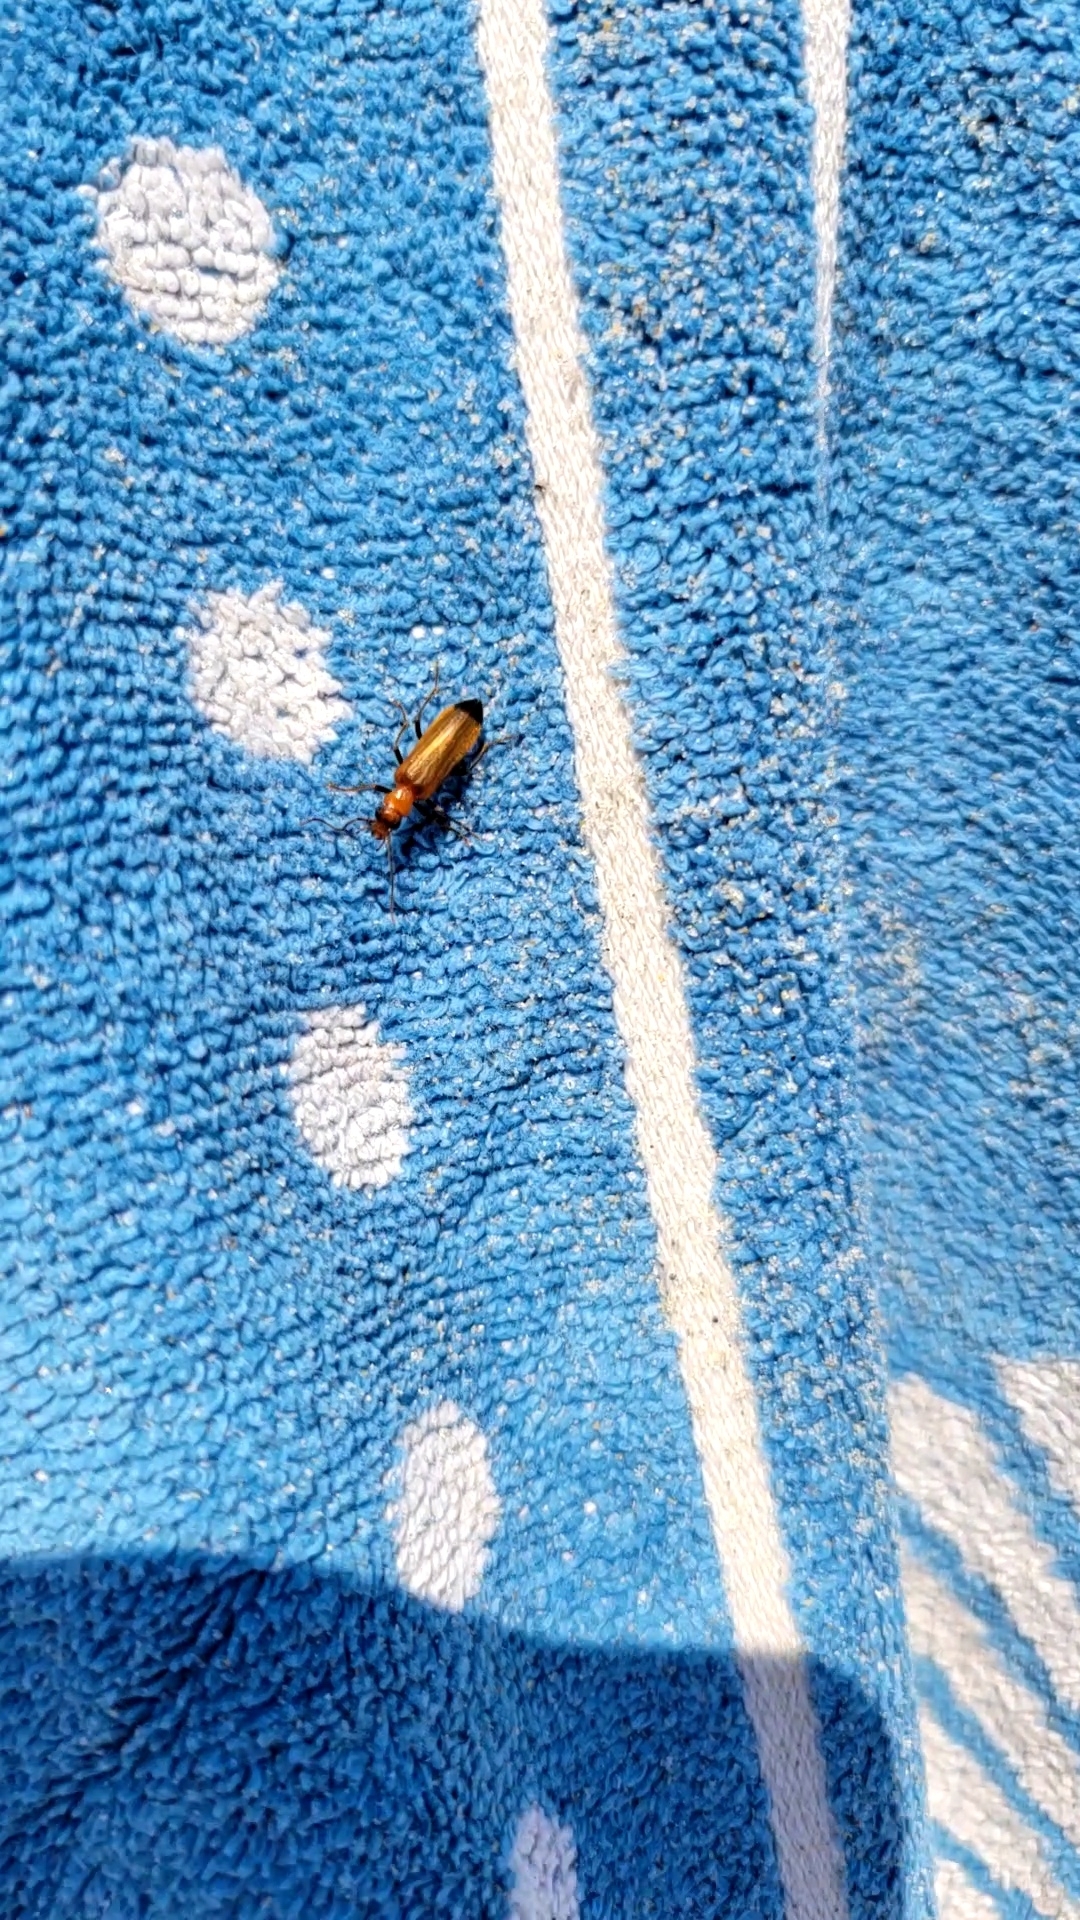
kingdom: Animalia
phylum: Arthropoda
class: Insecta
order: Coleoptera
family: Oedemeridae
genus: Nacerdes
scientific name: Nacerdes melanura
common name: Wharf borer
